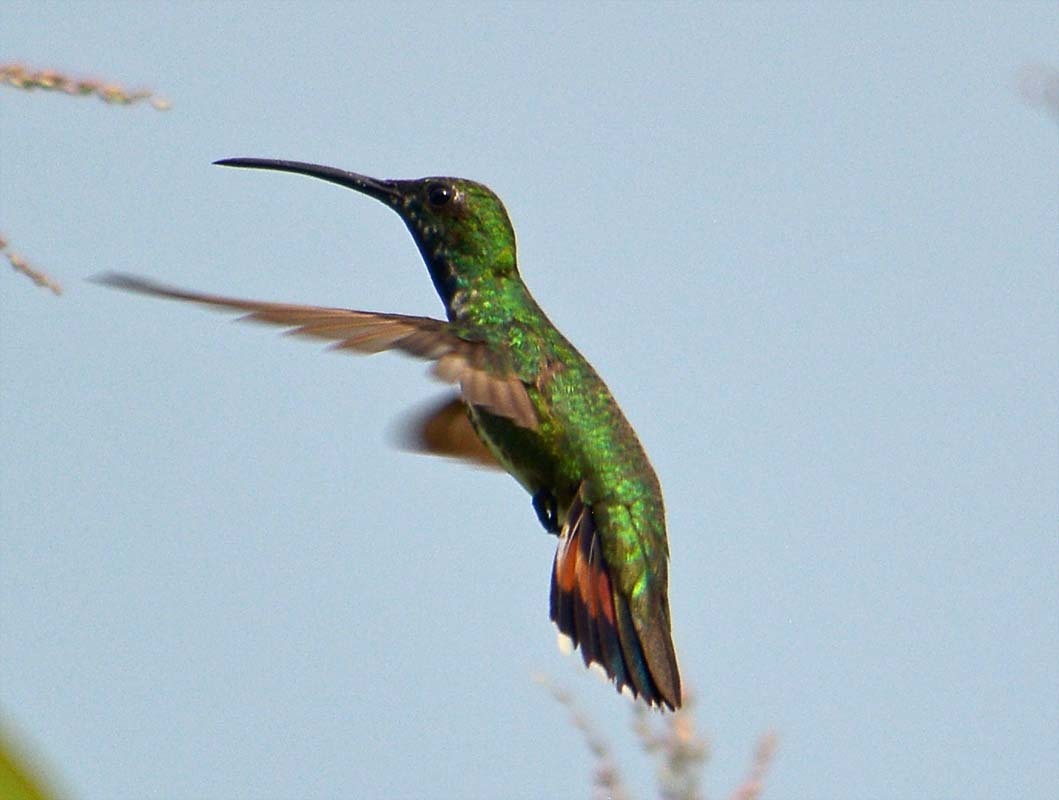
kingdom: Animalia
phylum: Chordata
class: Aves
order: Apodiformes
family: Trochilidae
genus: Anthracothorax
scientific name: Anthracothorax prevostii
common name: Green-breasted mango
